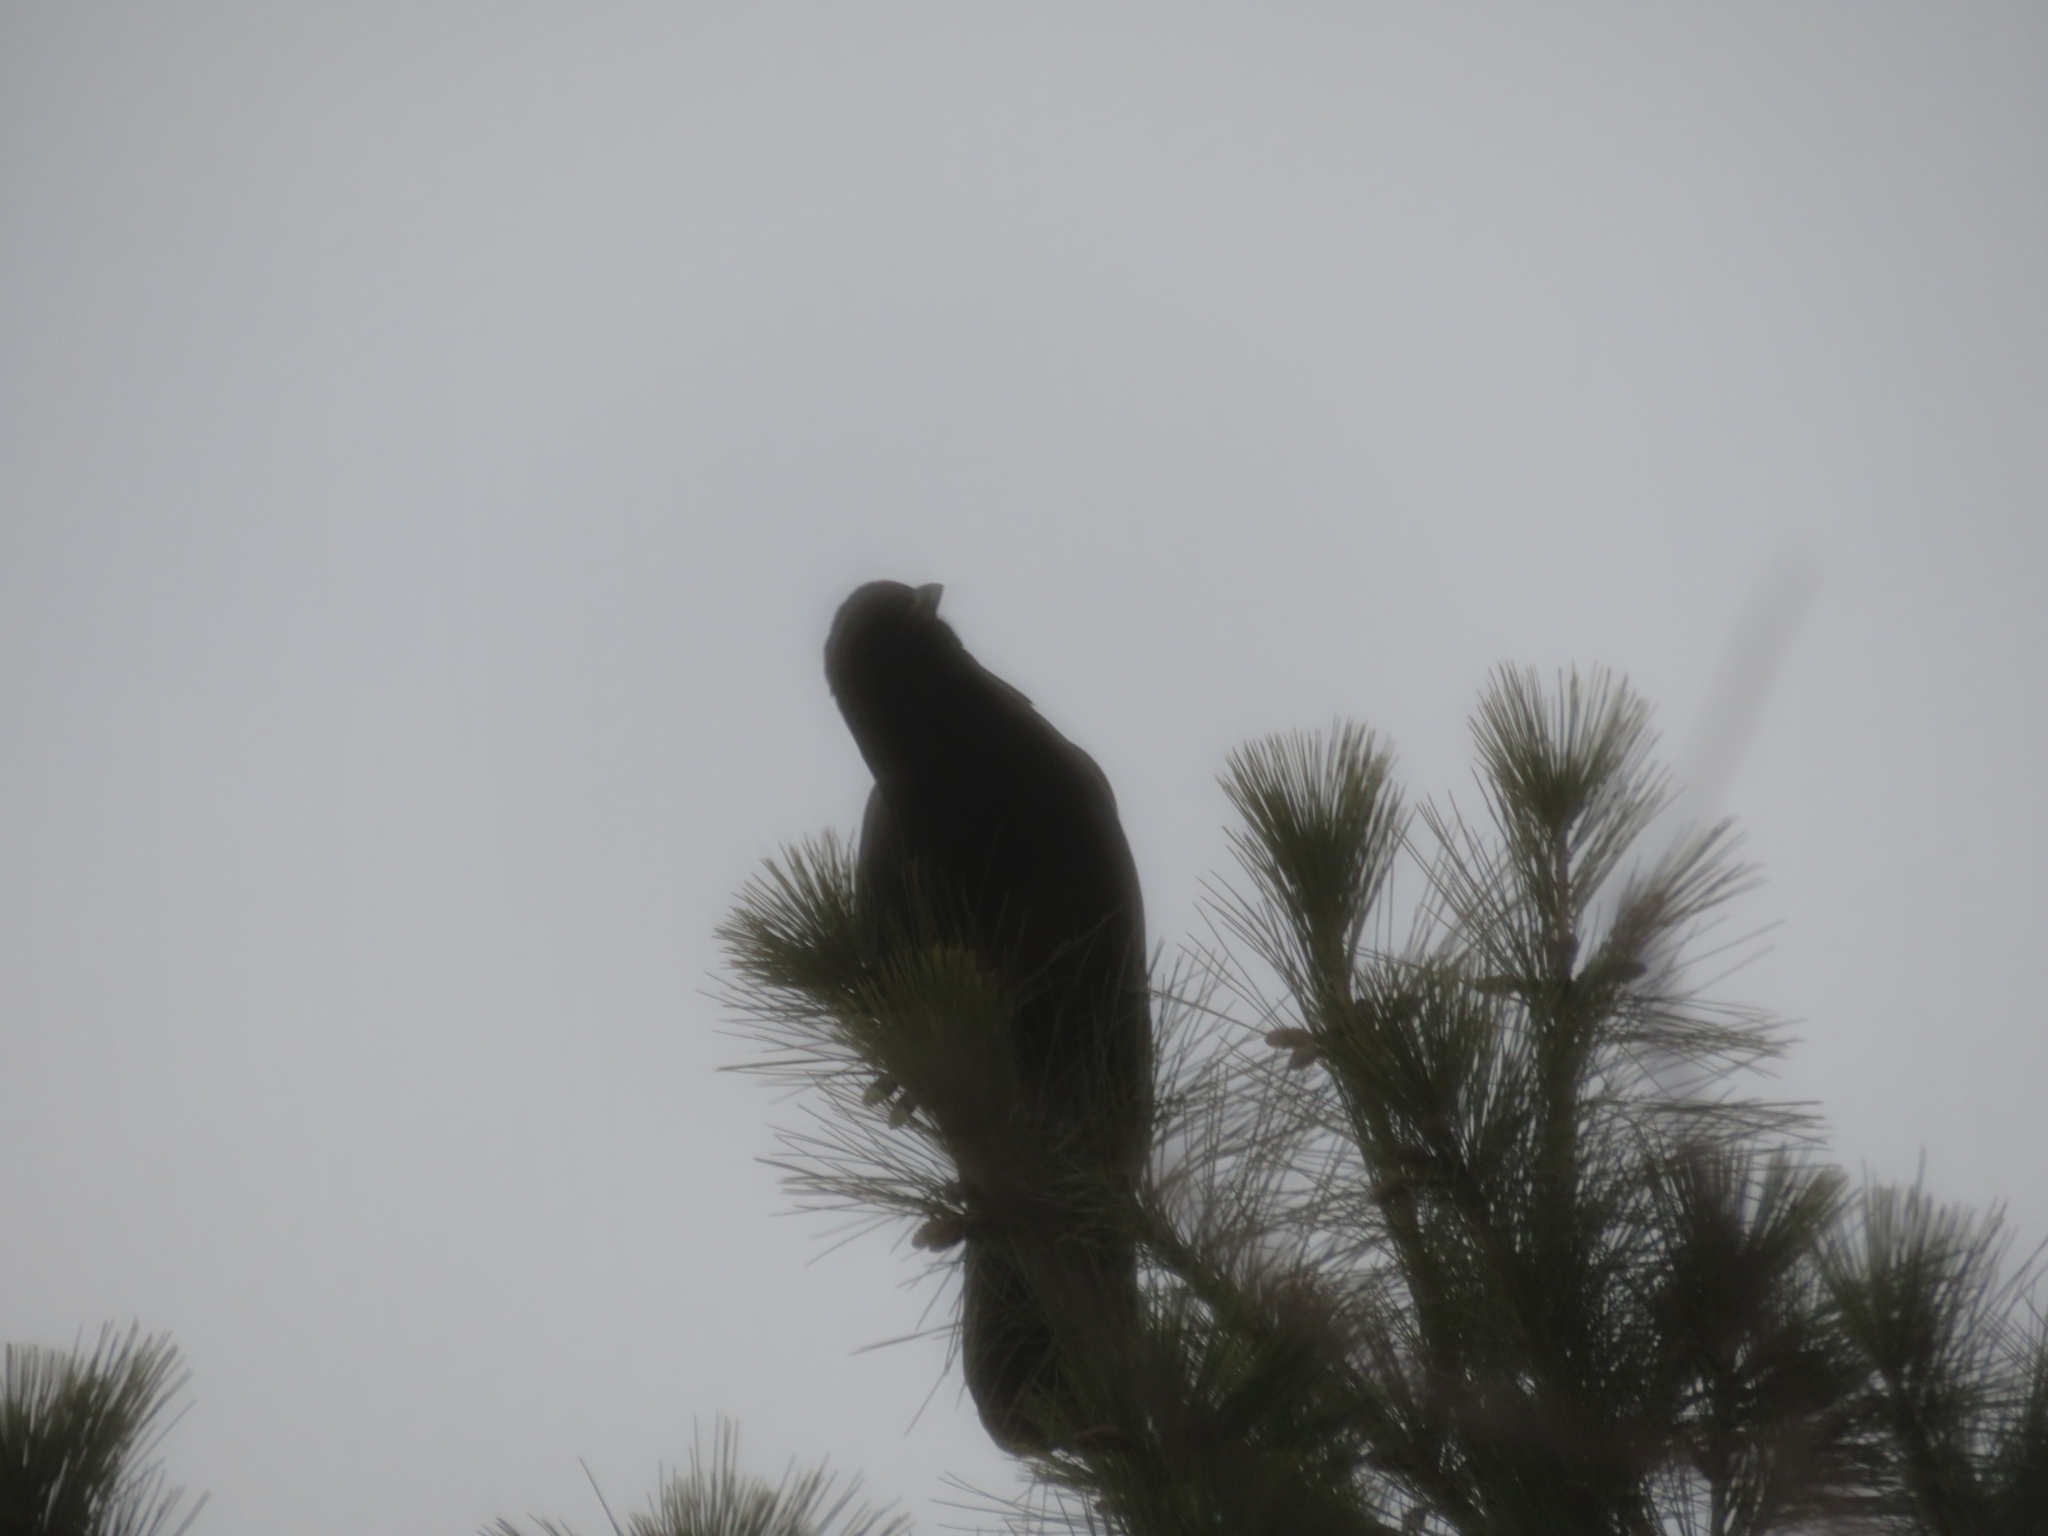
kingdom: Animalia
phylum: Chordata
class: Aves
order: Passeriformes
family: Corvidae
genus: Corvus
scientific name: Corvus brachyrhynchos
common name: American crow
